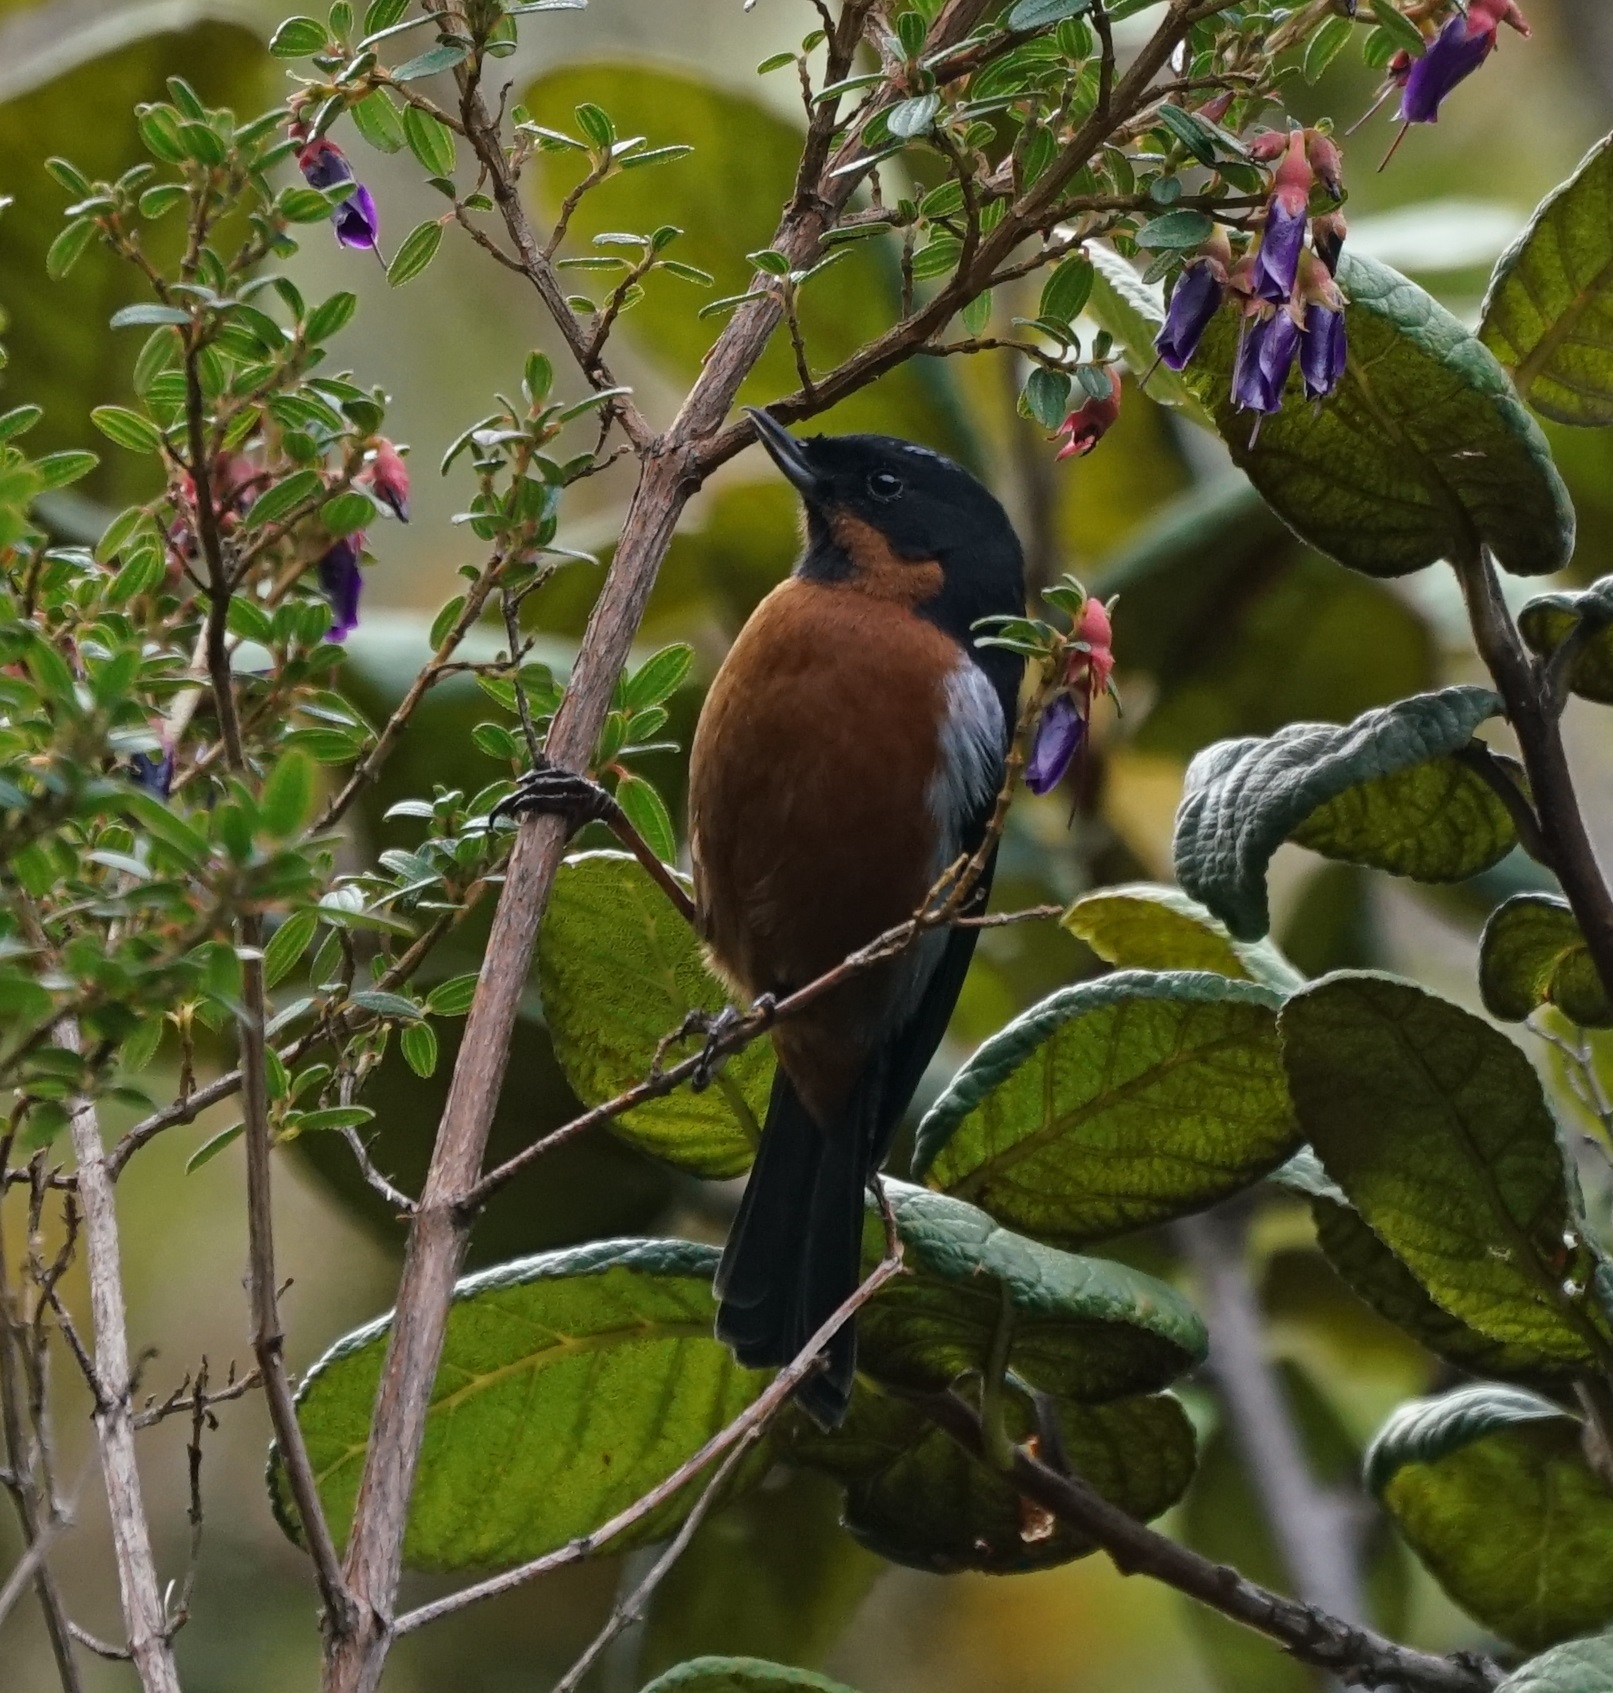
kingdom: Animalia
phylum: Chordata
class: Aves
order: Passeriformes
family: Thraupidae
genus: Diglossa
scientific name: Diglossa brunneiventris
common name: Black-throated flowerpiercer
